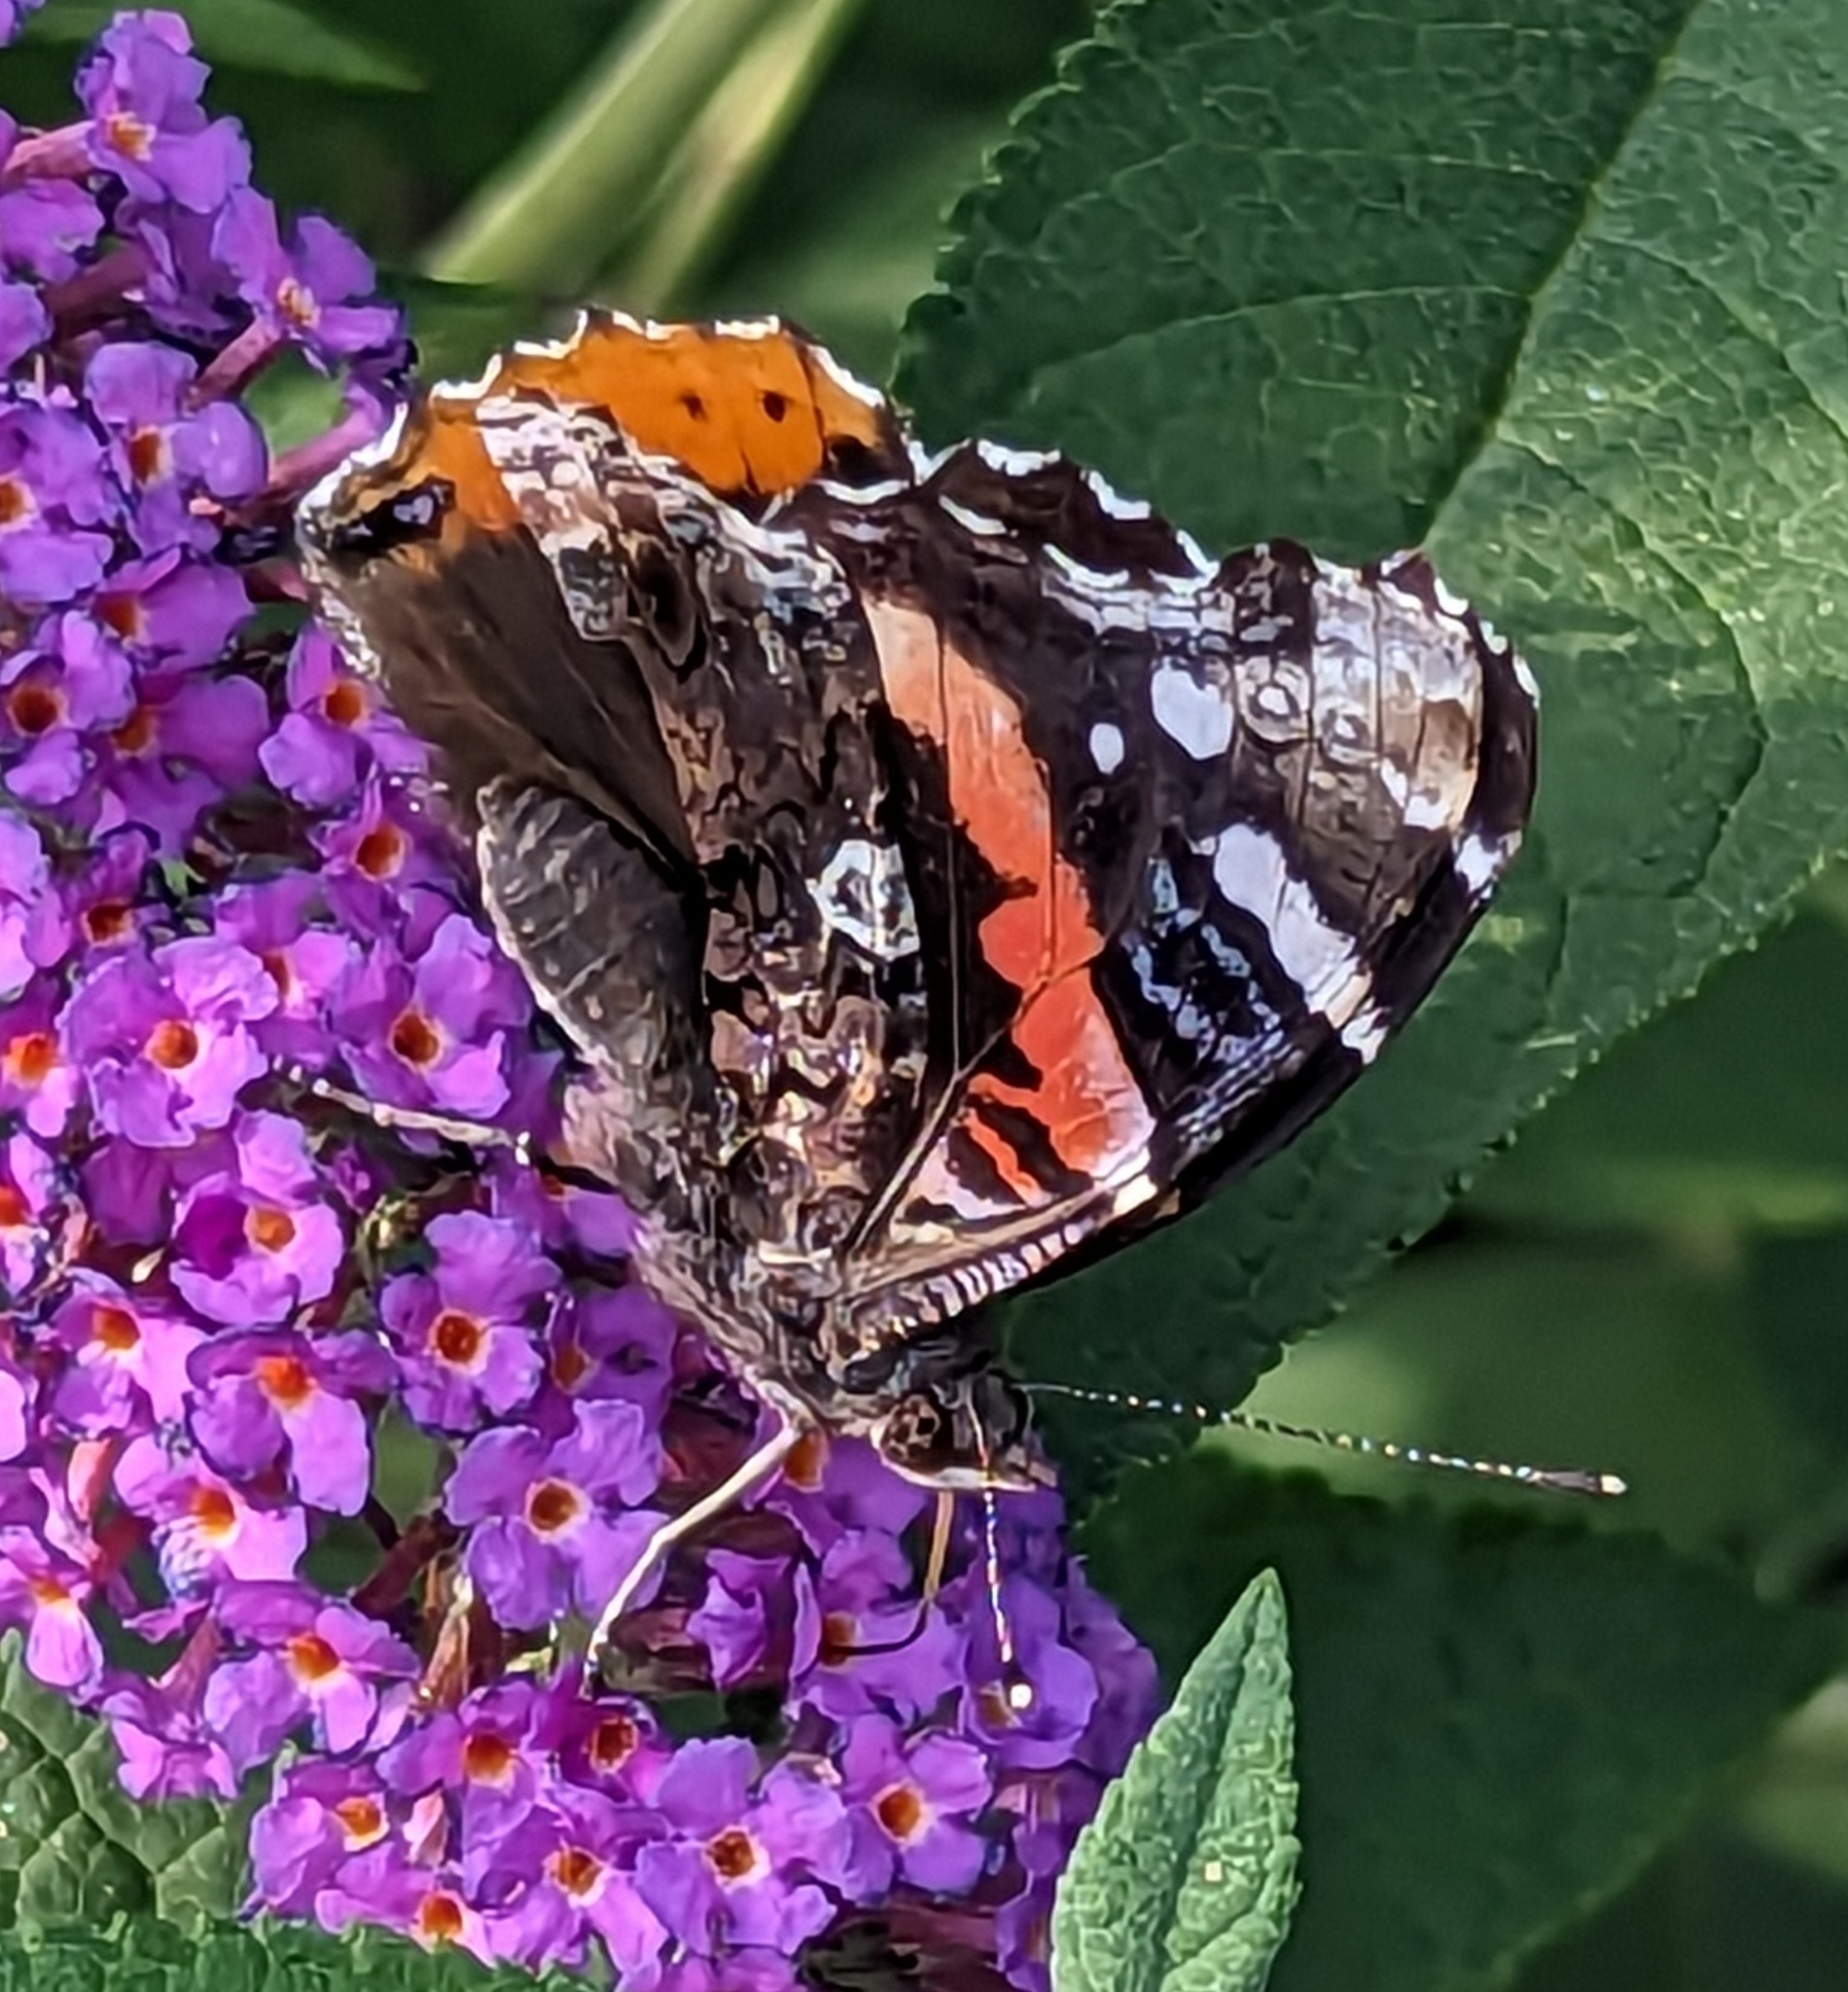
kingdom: Animalia
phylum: Arthropoda
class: Insecta
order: Lepidoptera
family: Nymphalidae
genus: Vanessa
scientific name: Vanessa atalanta
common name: Red admiral
